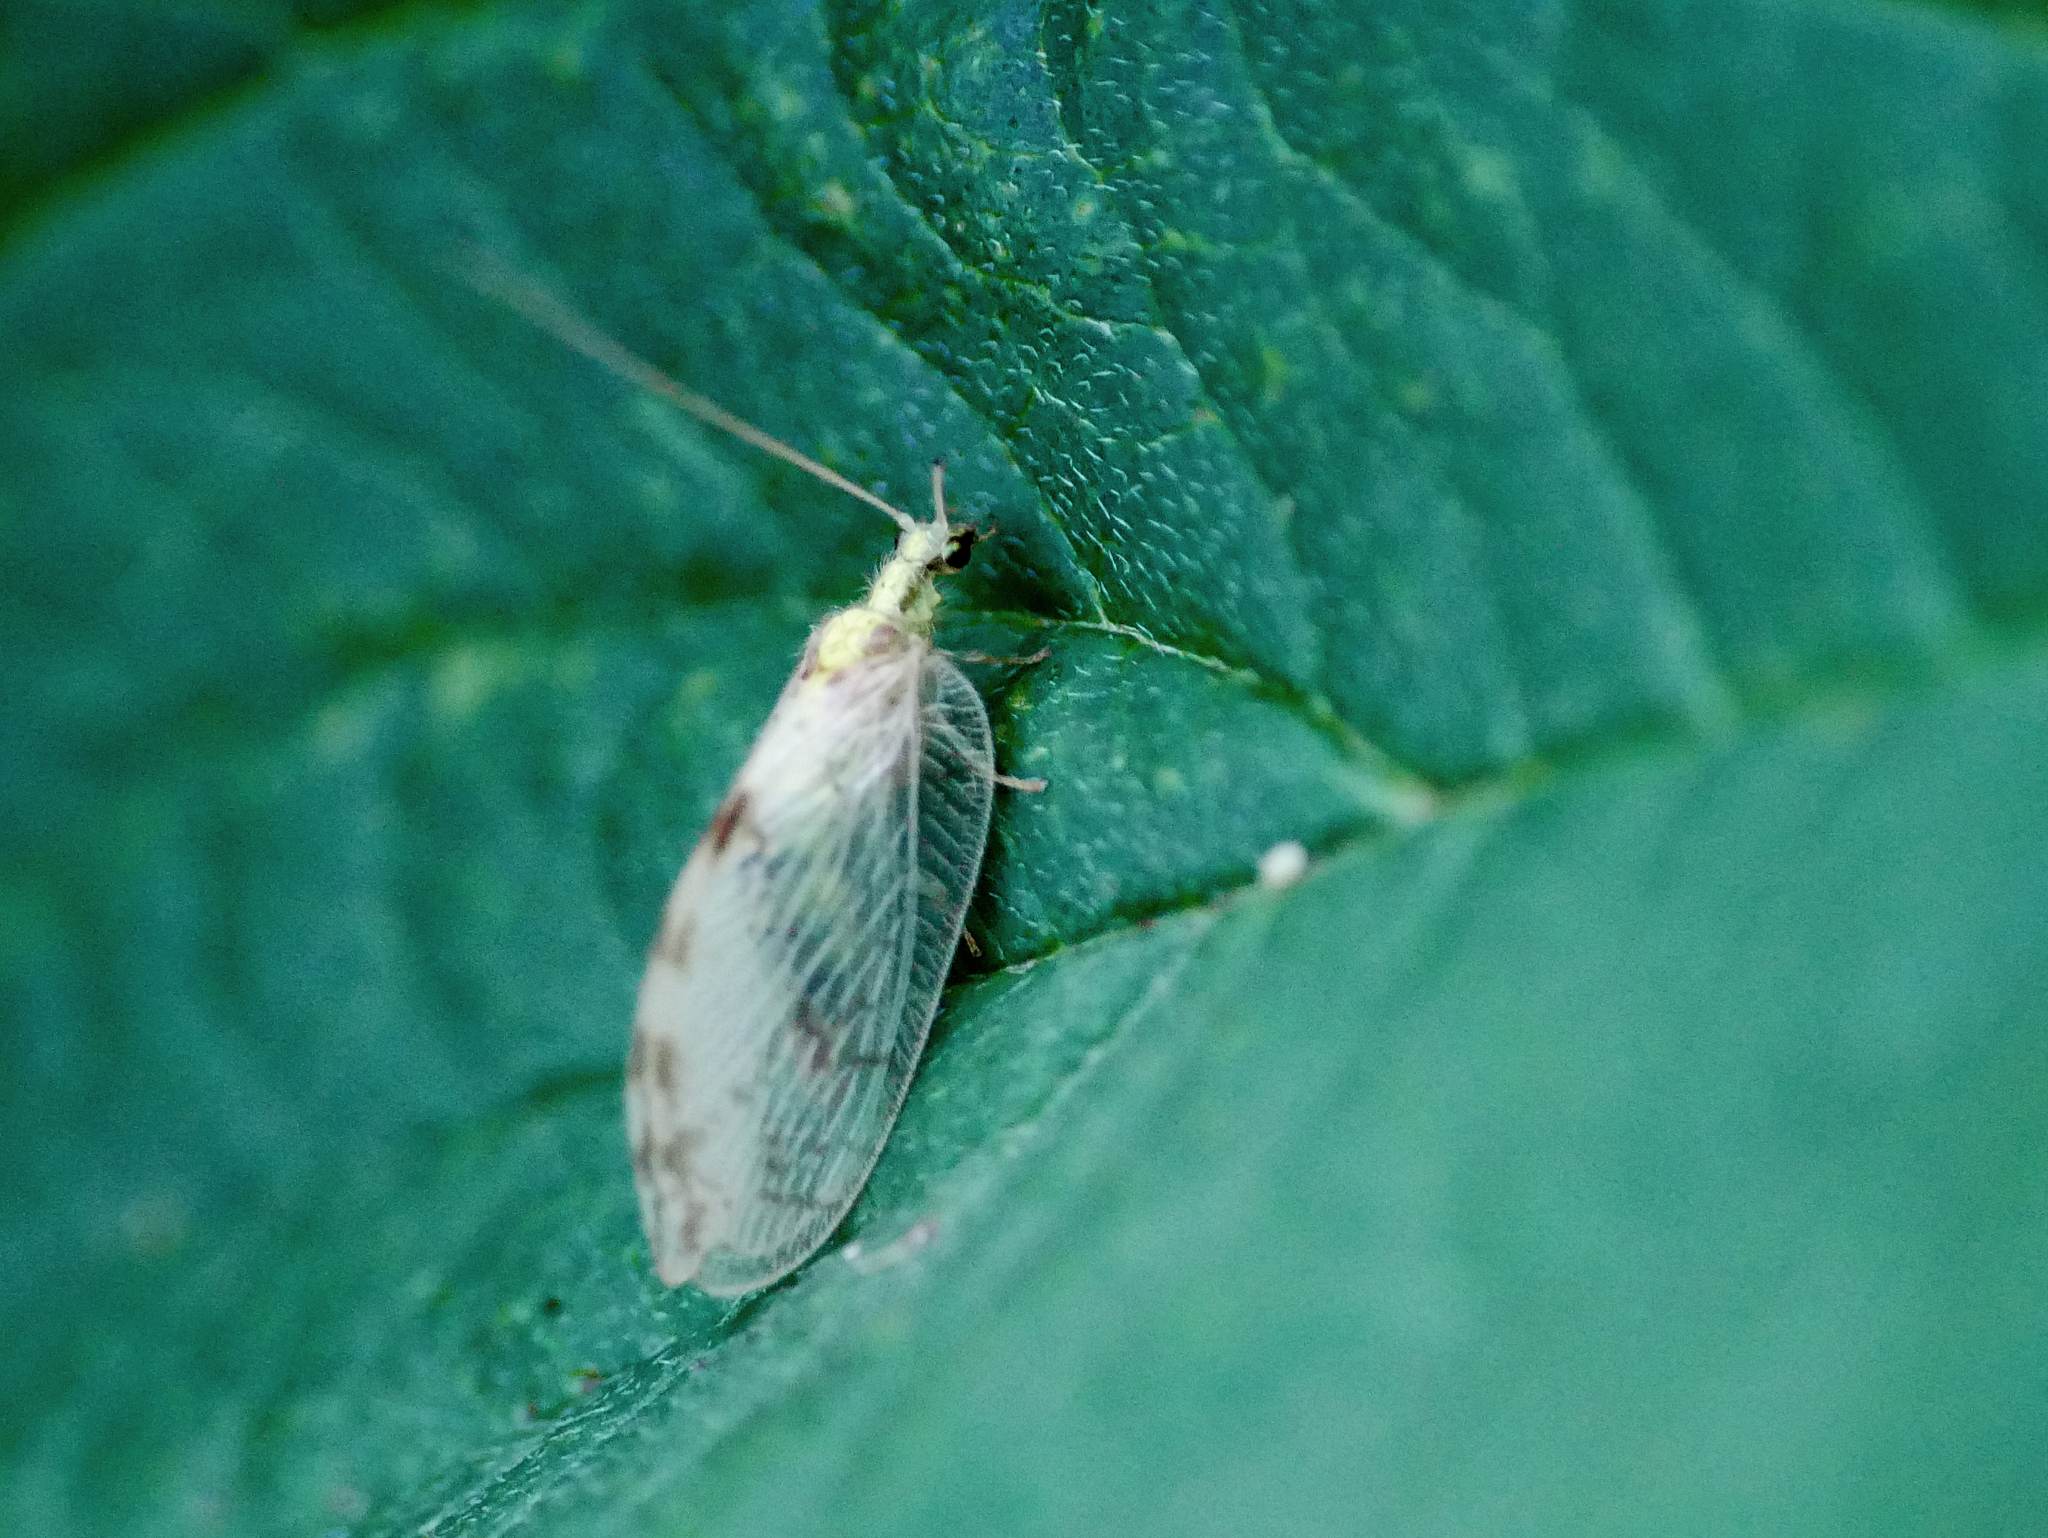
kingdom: Animalia
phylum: Arthropoda
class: Insecta
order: Neuroptera
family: Hemerobiidae
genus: Hemerobius
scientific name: Hemerobius marginatus
